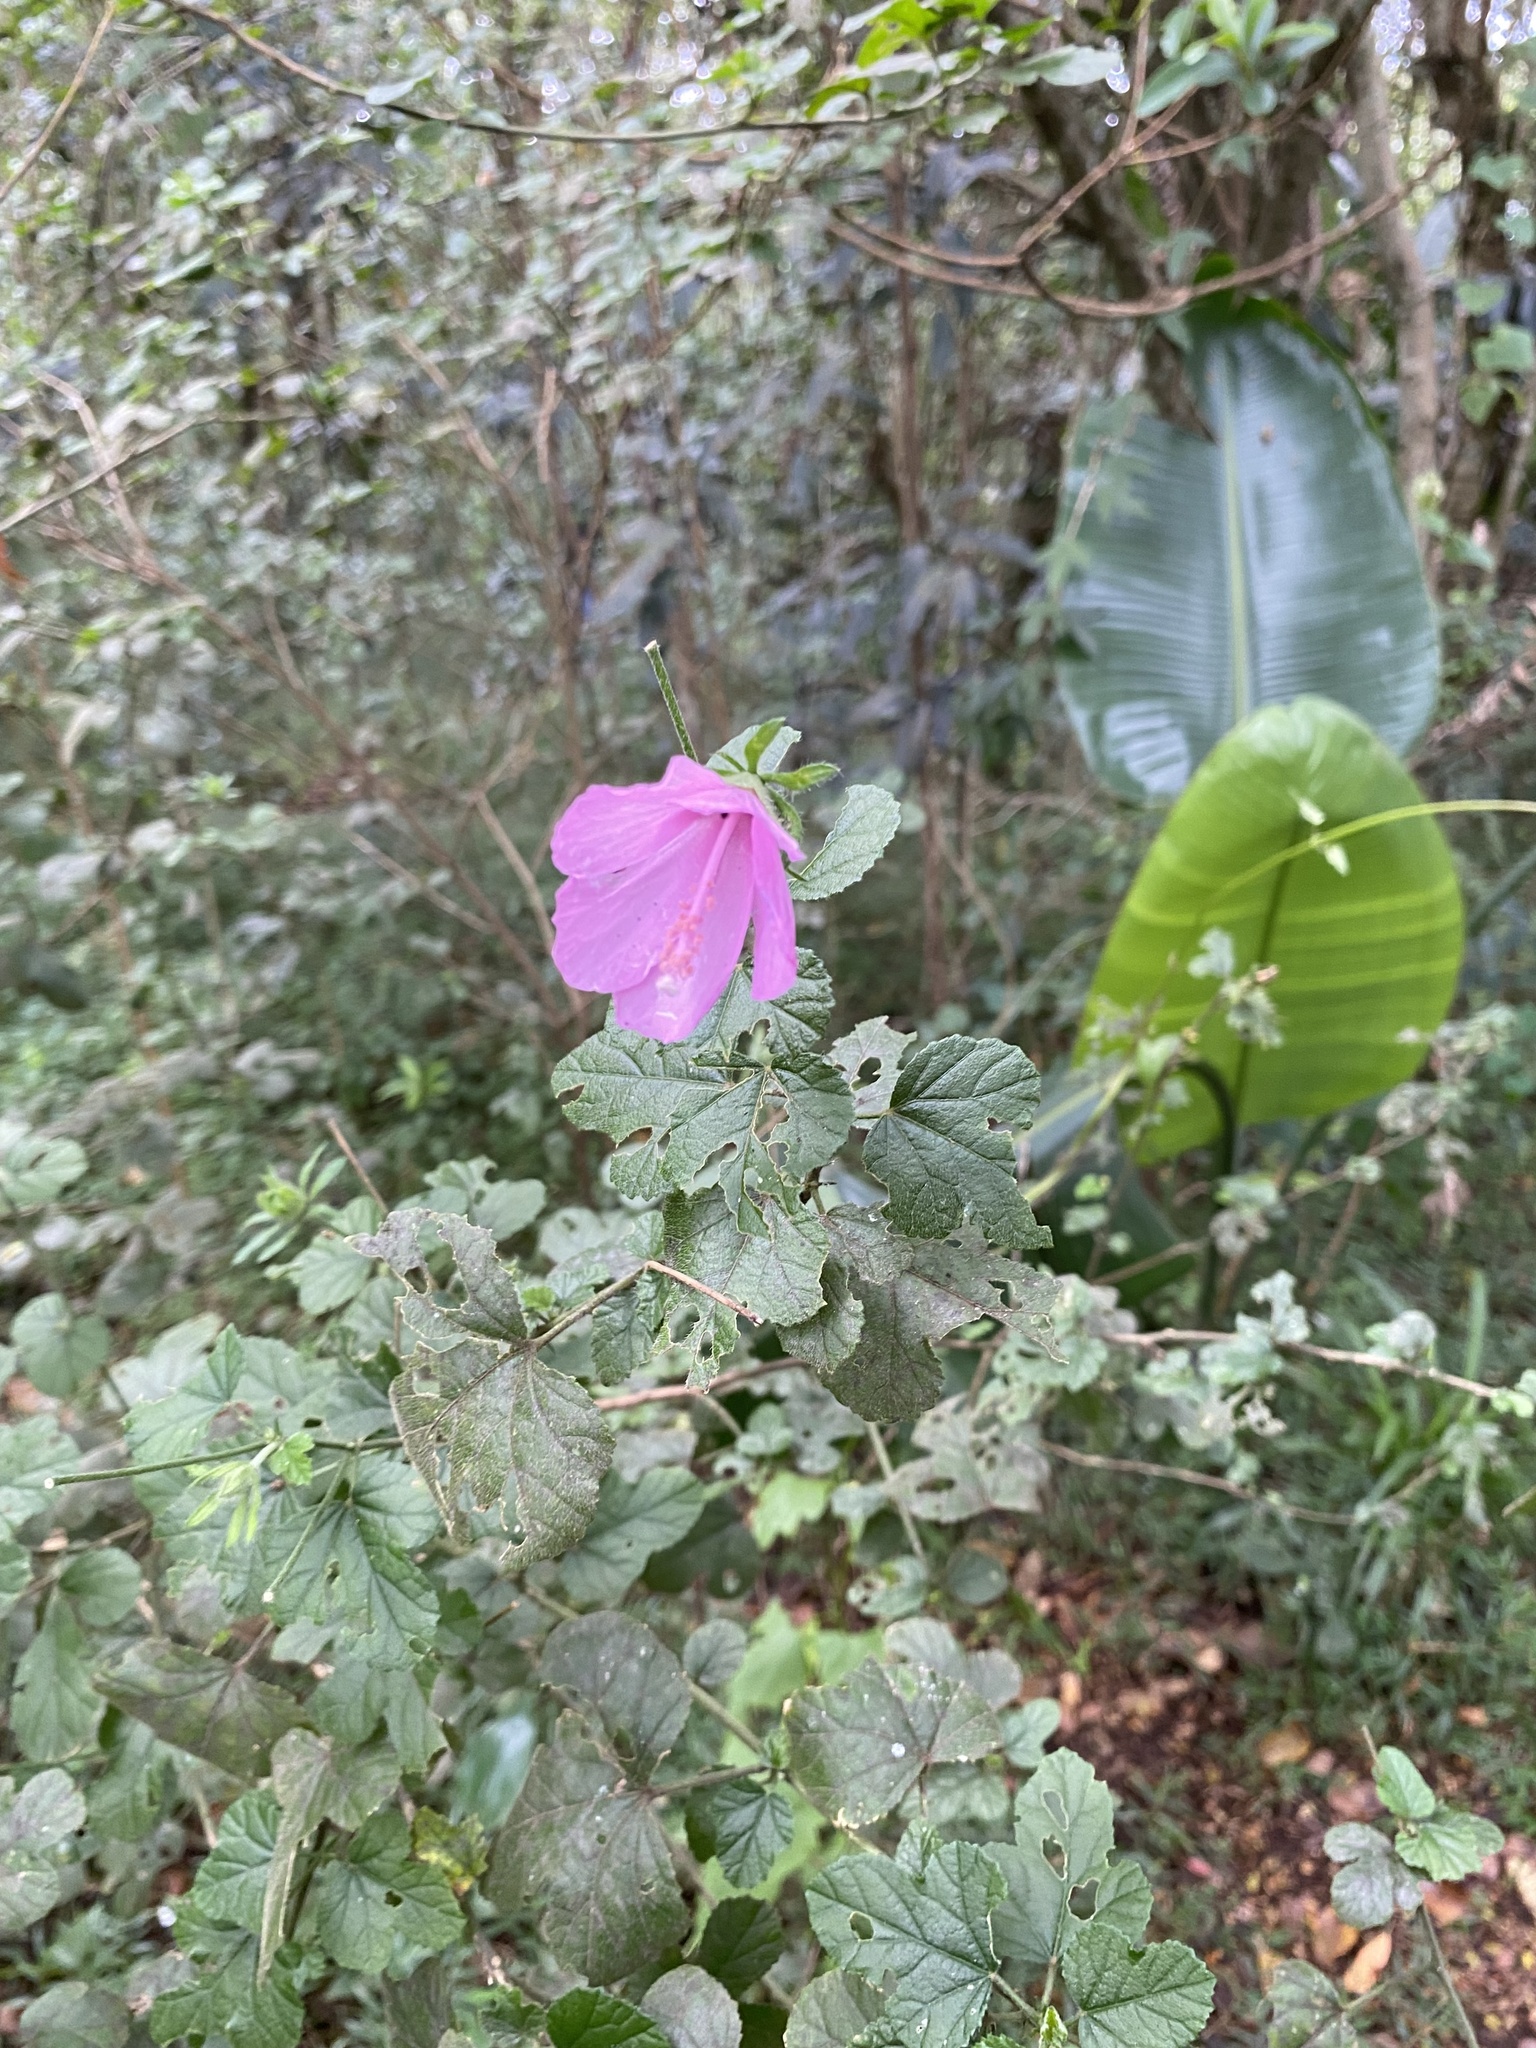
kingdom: Plantae
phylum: Tracheophyta
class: Magnoliopsida
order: Malvales
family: Malvaceae
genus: Hibiscus
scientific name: Hibiscus pedunculatus
